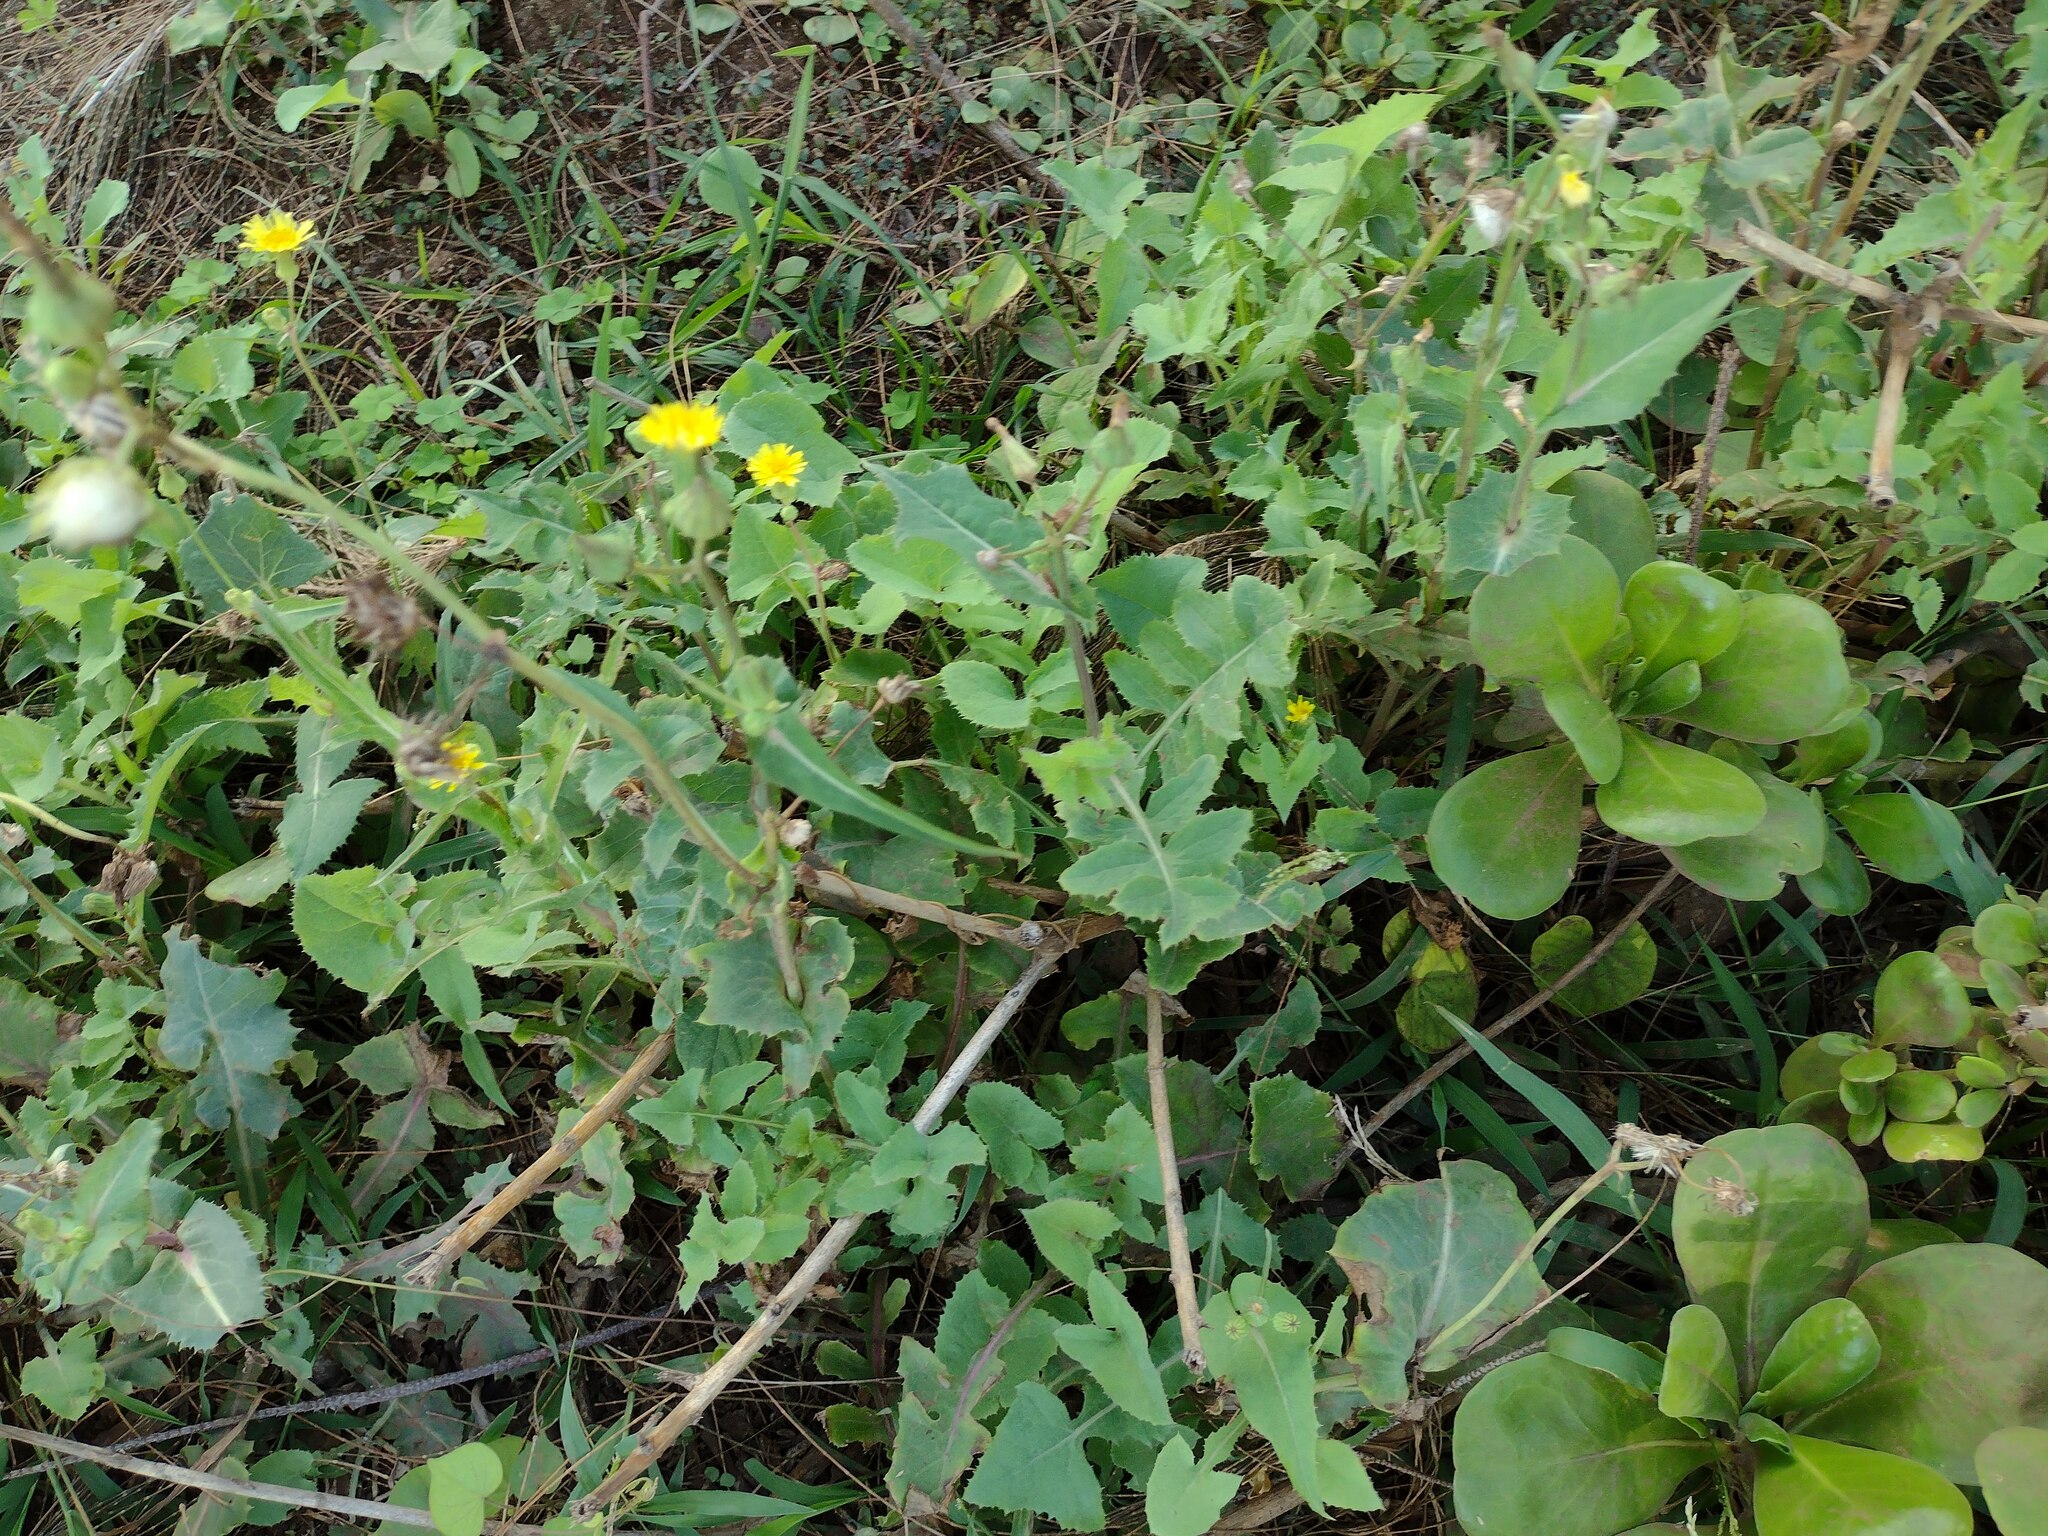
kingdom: Plantae
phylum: Tracheophyta
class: Magnoliopsida
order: Asterales
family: Asteraceae
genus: Sonchus
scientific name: Sonchus oleraceus
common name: Common sowthistle
